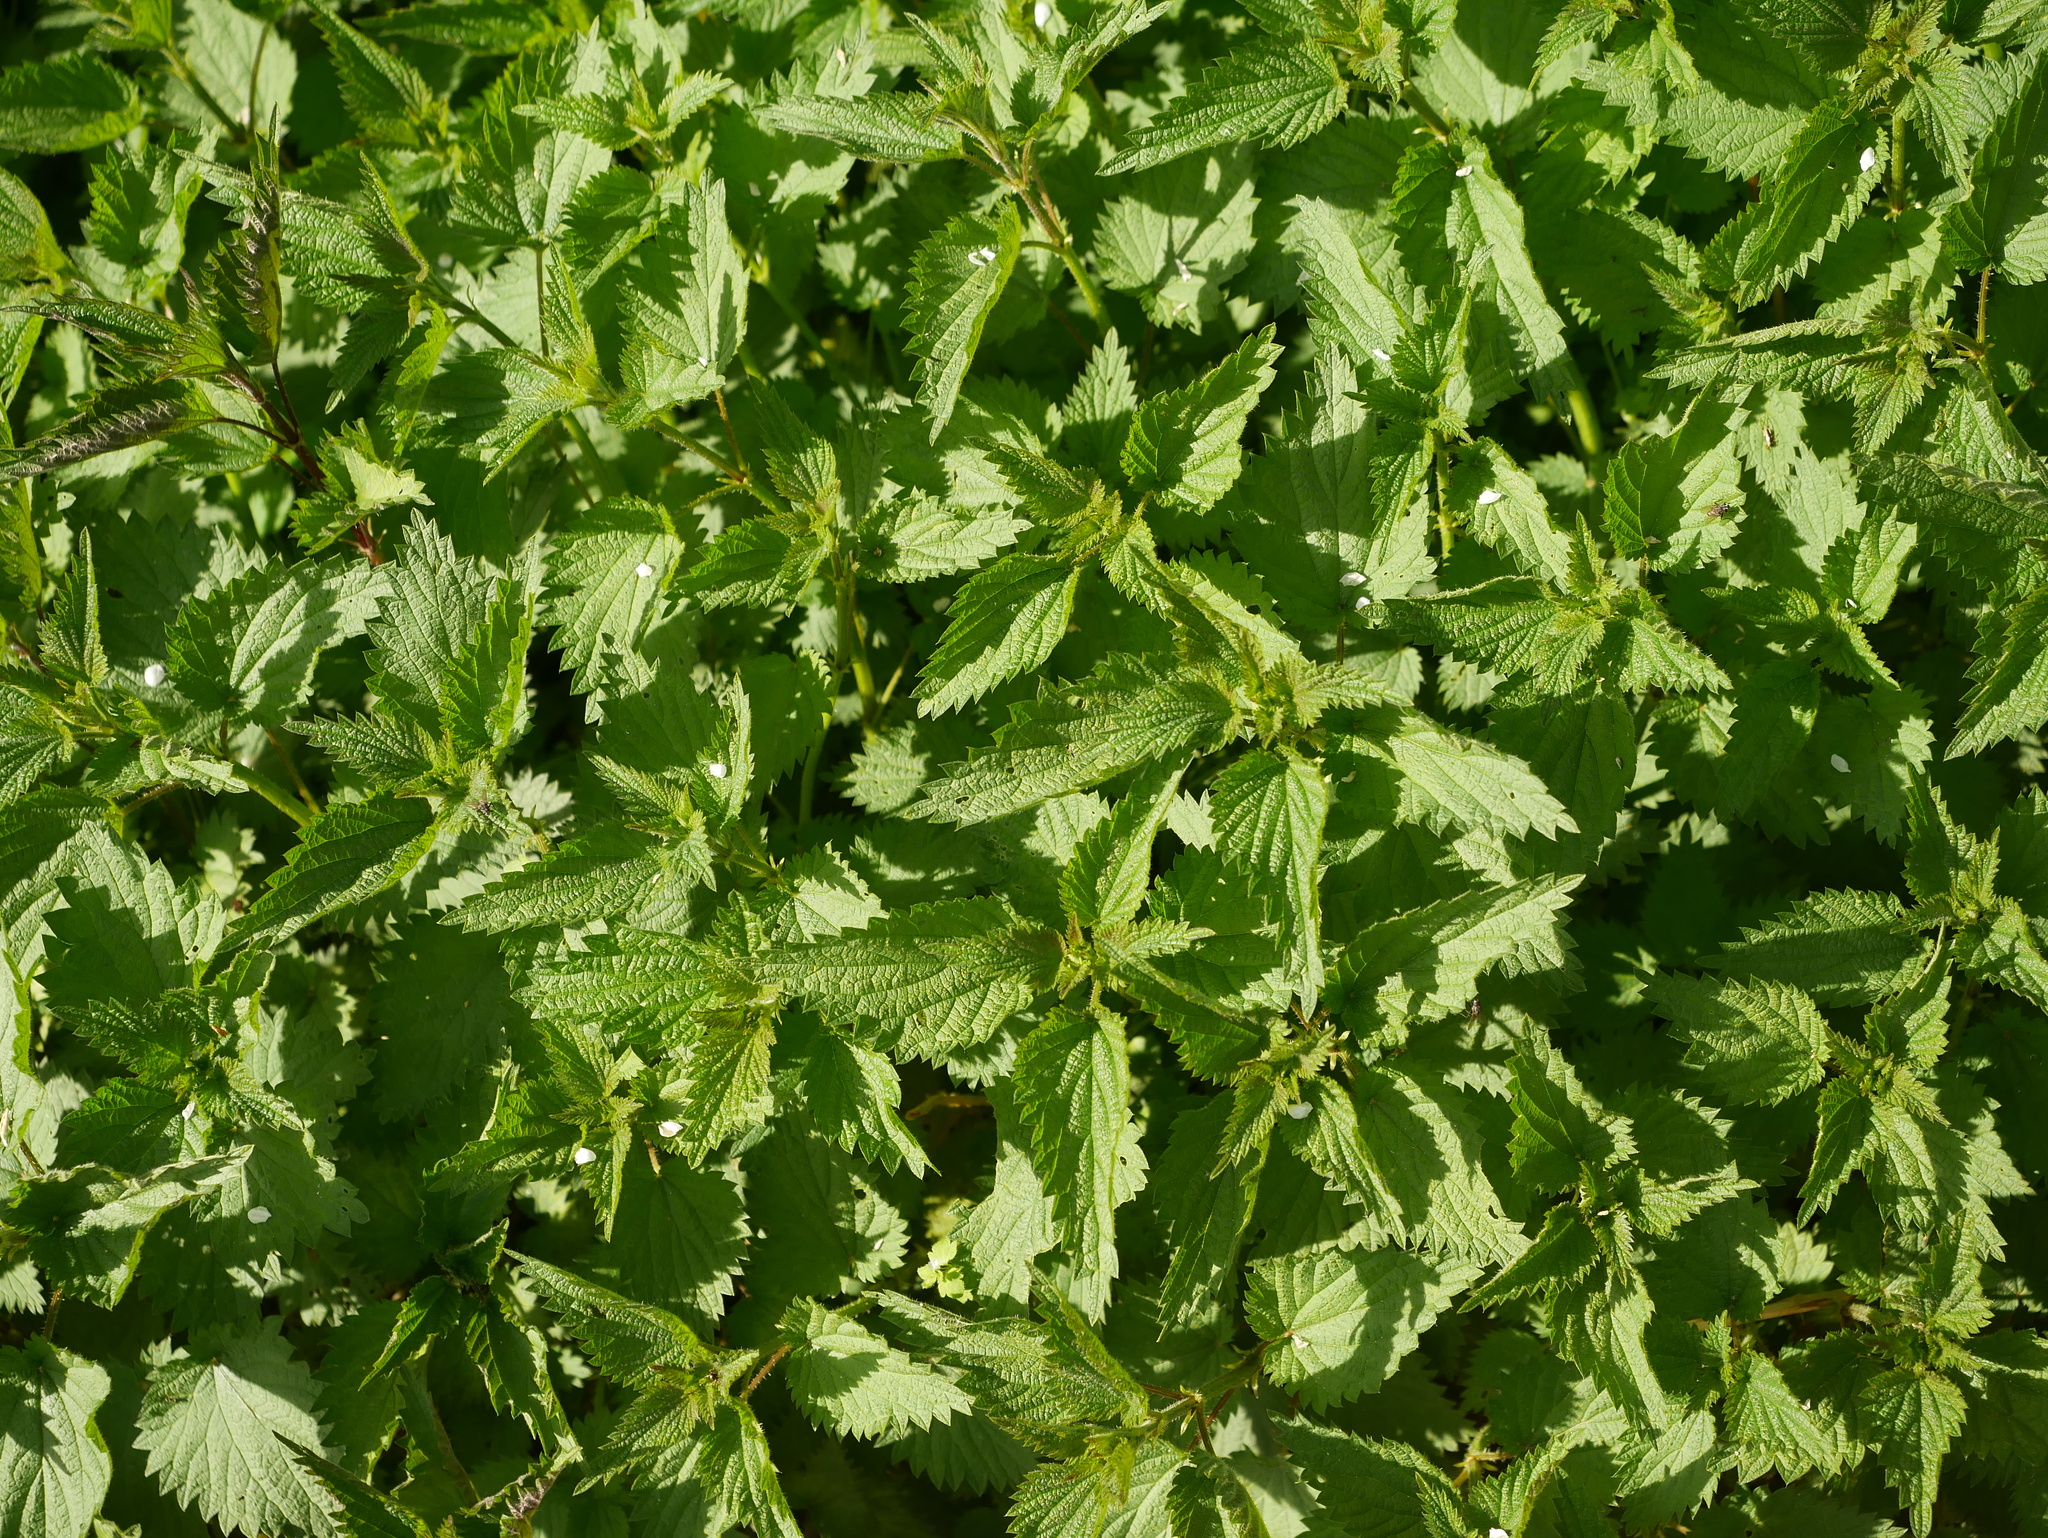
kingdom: Plantae
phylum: Tracheophyta
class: Magnoliopsida
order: Rosales
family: Urticaceae
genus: Urtica
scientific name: Urtica dioica
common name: Common nettle
